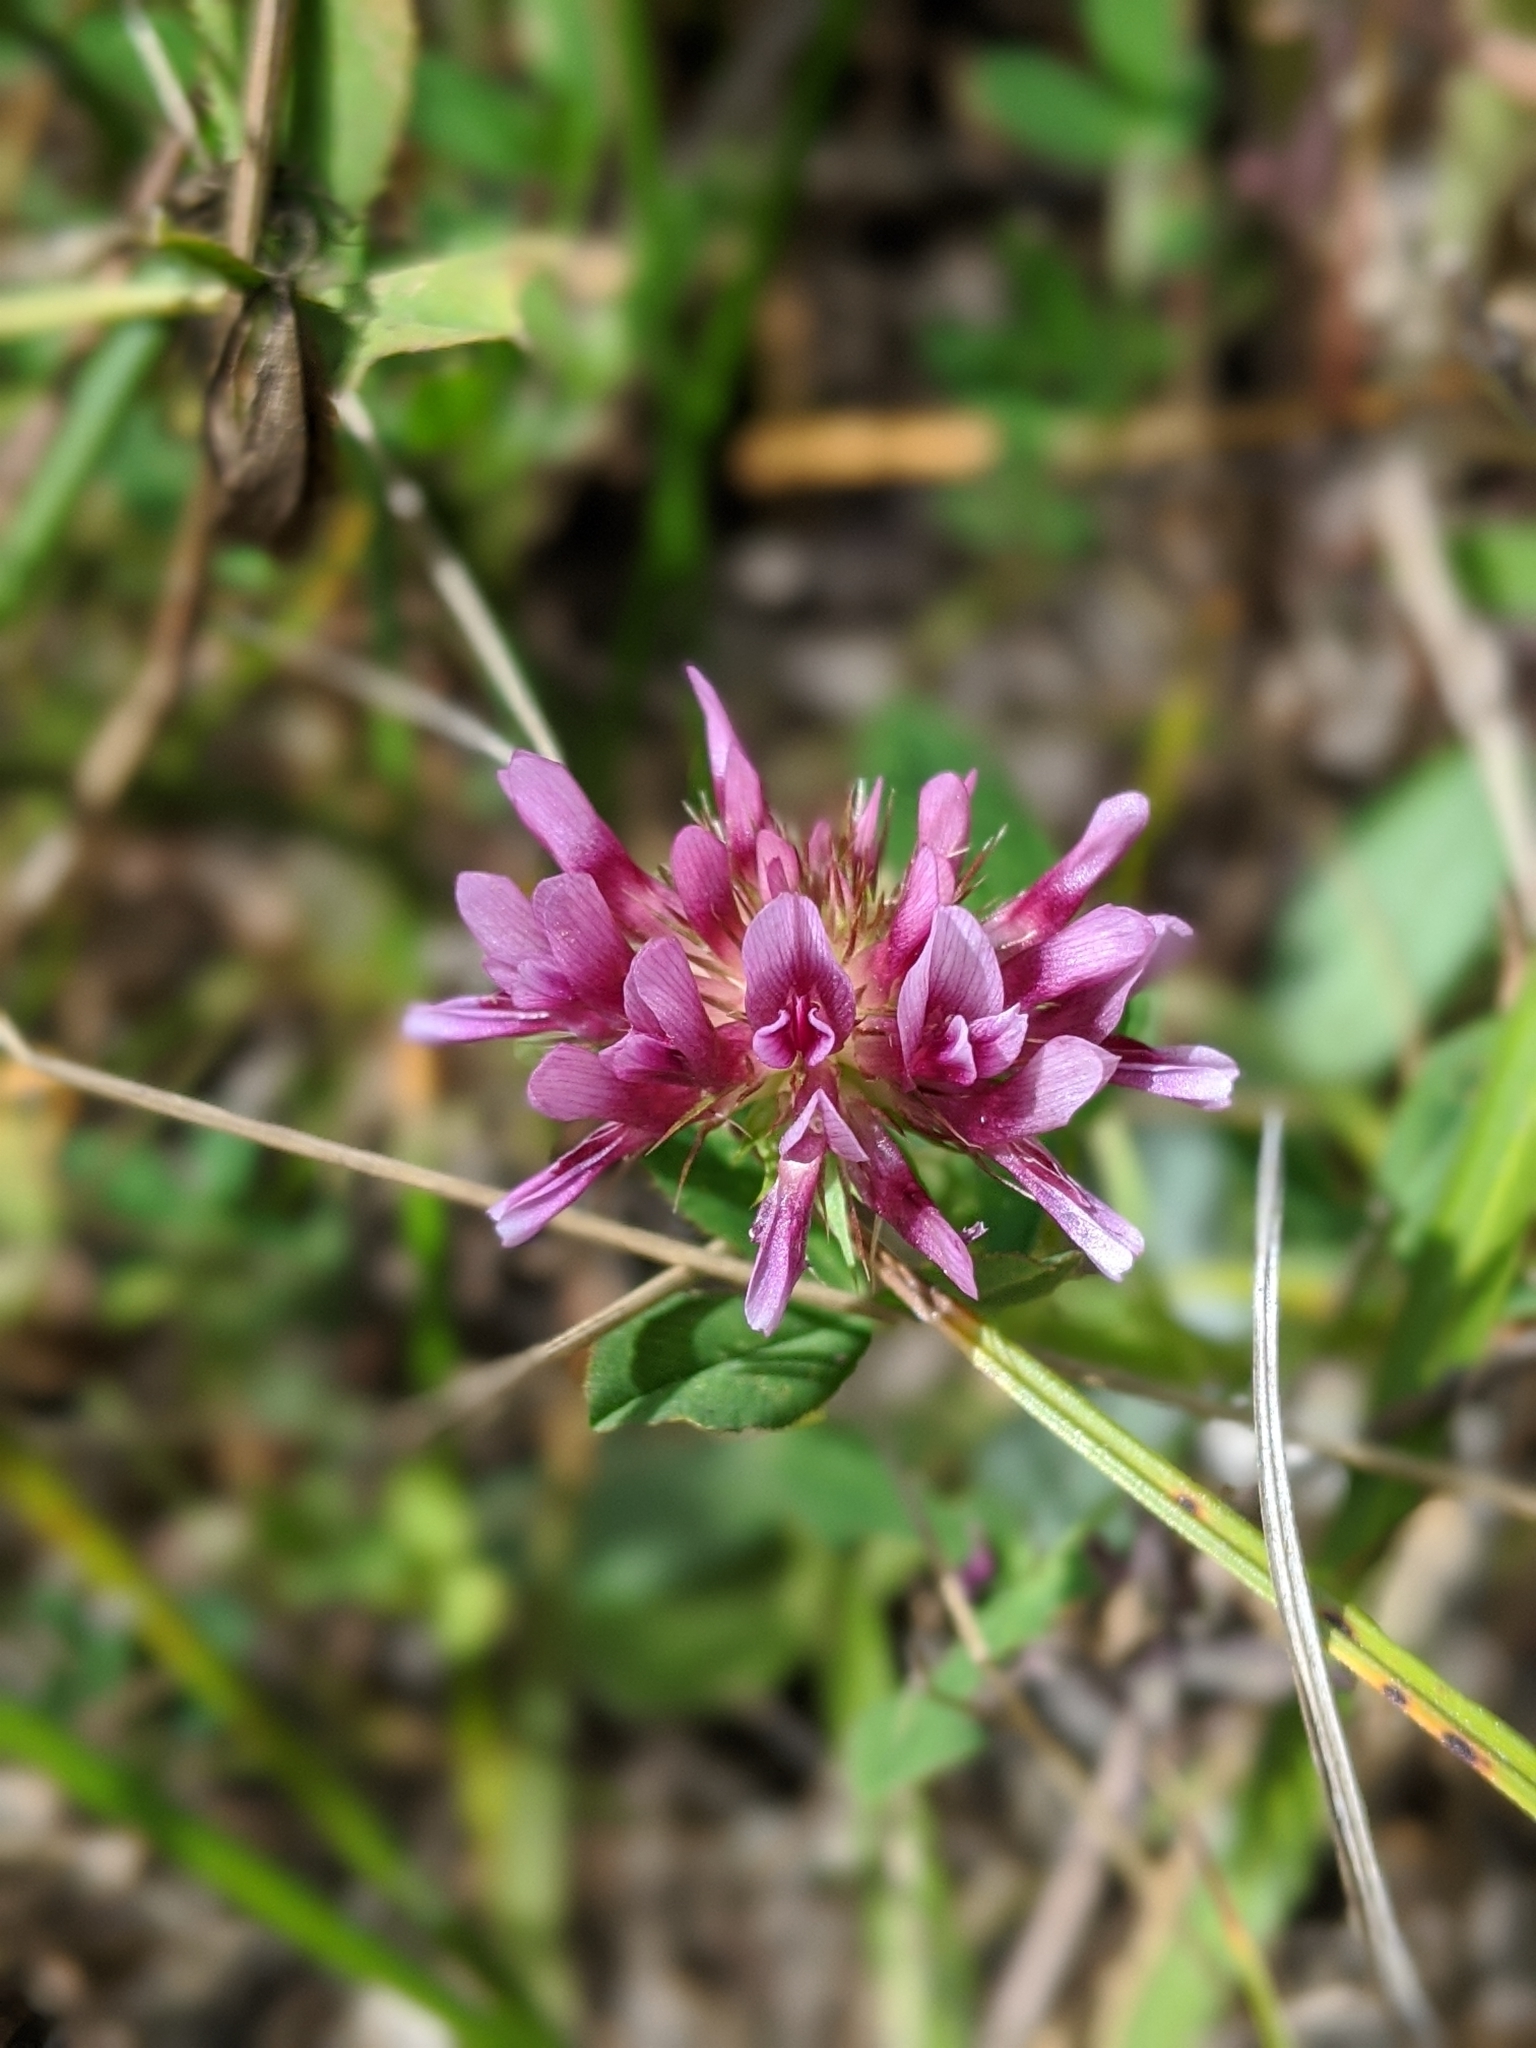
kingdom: Plantae
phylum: Tracheophyta
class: Magnoliopsida
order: Fabales
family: Fabaceae
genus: Trifolium
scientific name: Trifolium wormskioldii
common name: Springbank clover
